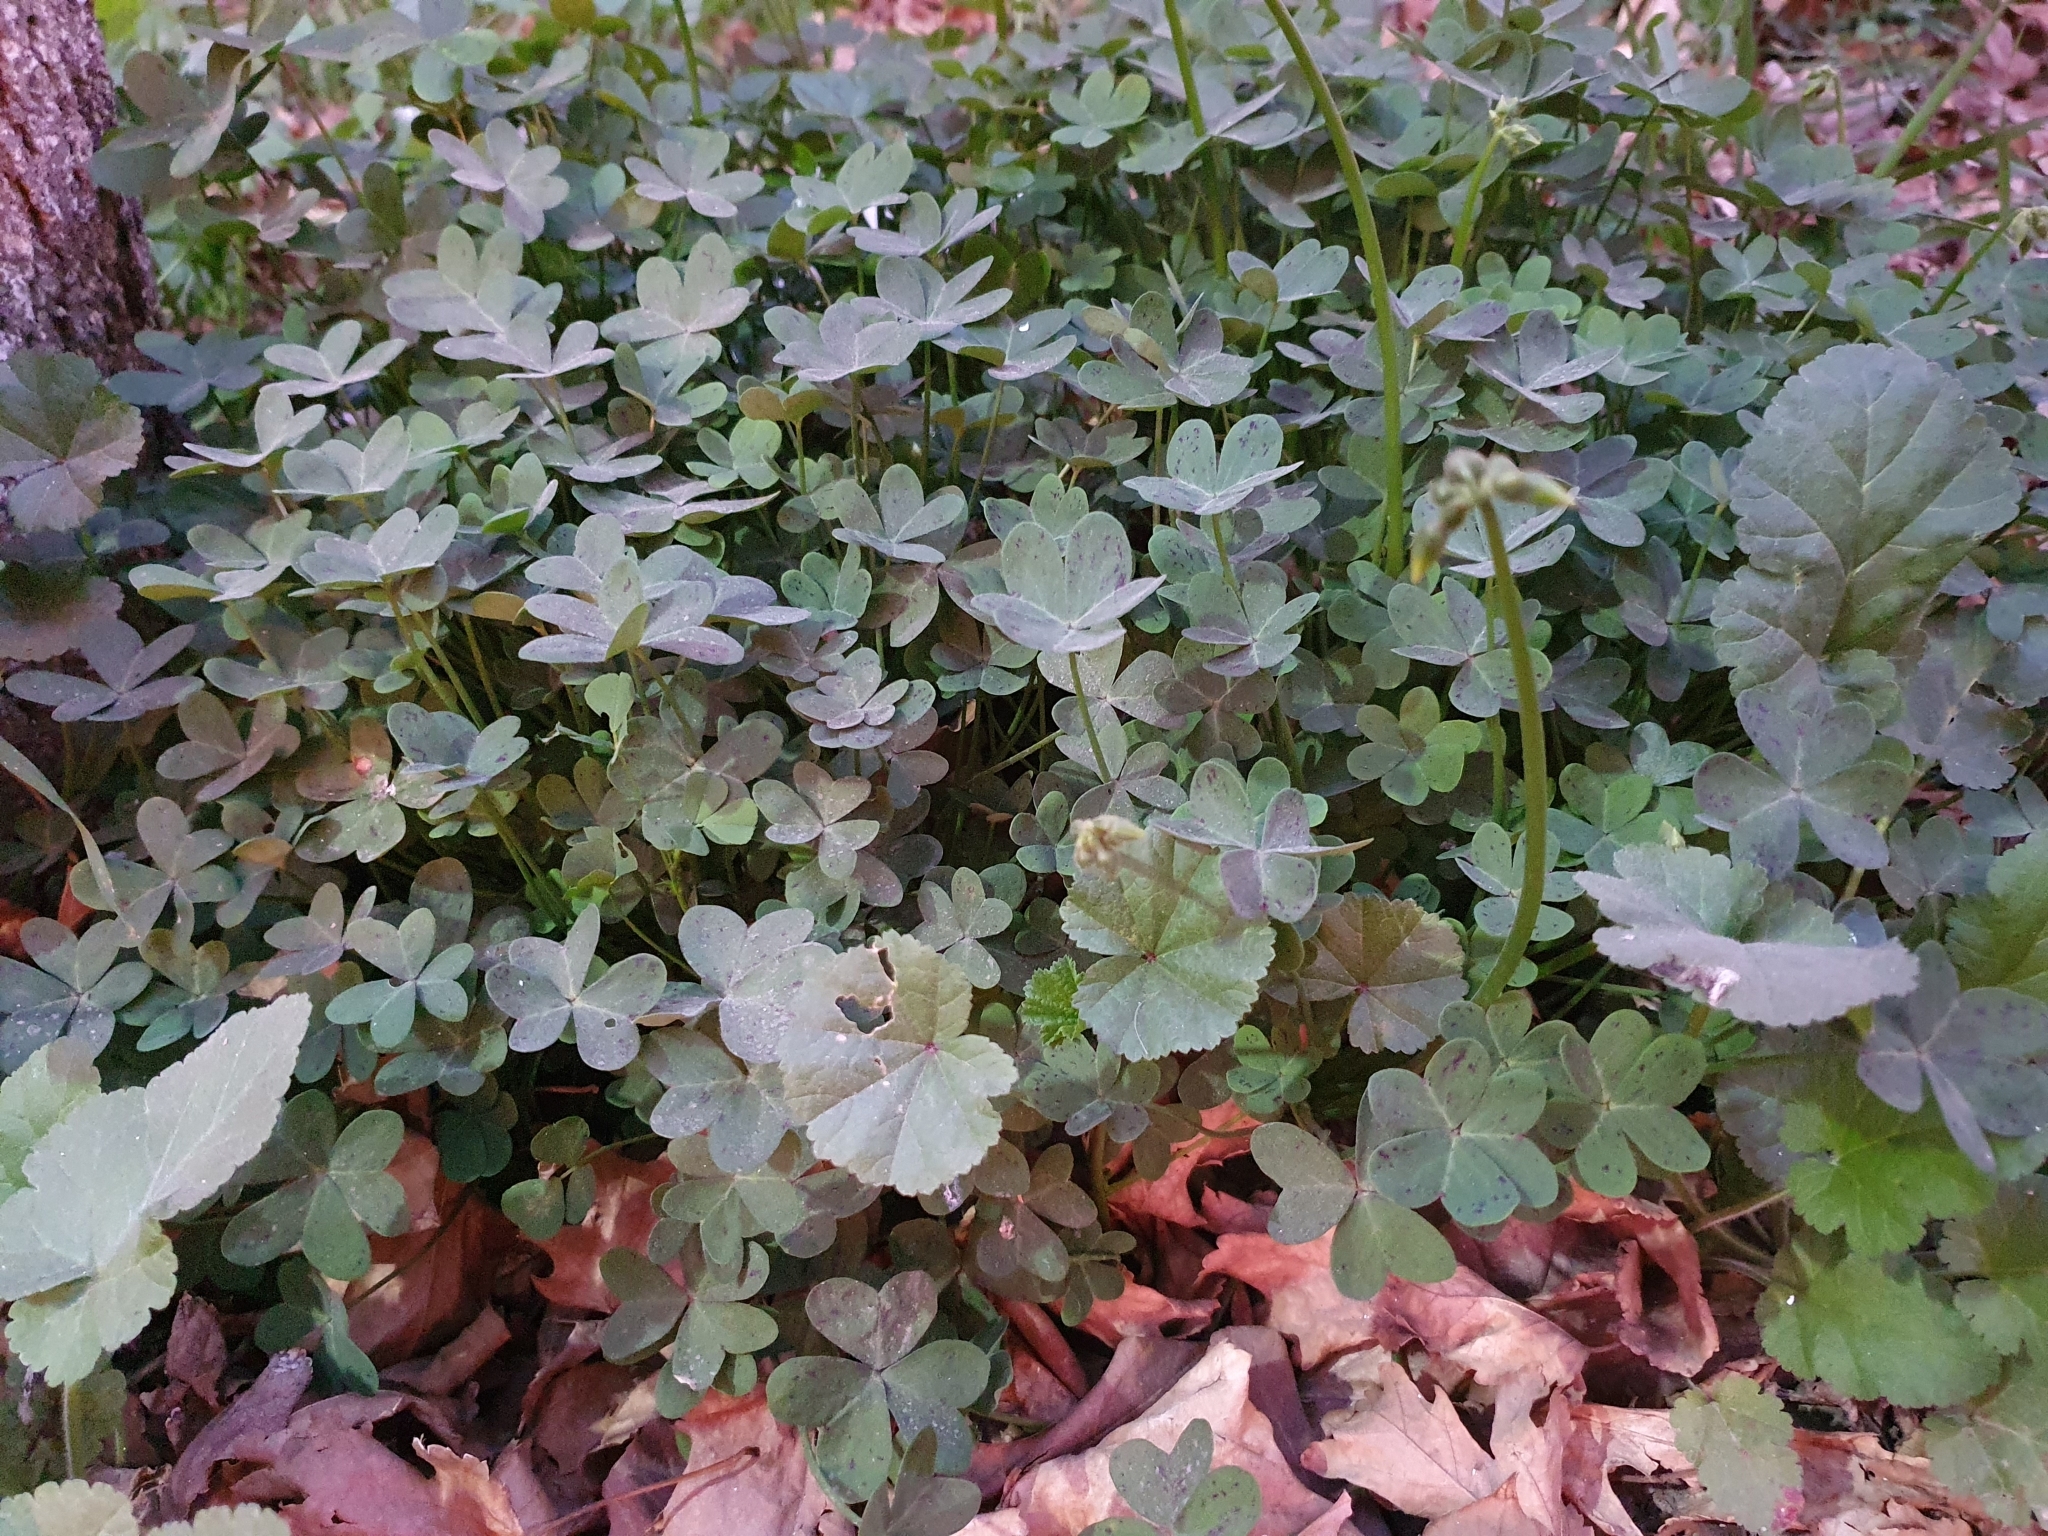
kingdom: Plantae
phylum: Tracheophyta
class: Magnoliopsida
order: Oxalidales
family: Oxalidaceae
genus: Oxalis
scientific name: Oxalis pes-caprae
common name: Bermuda-buttercup
